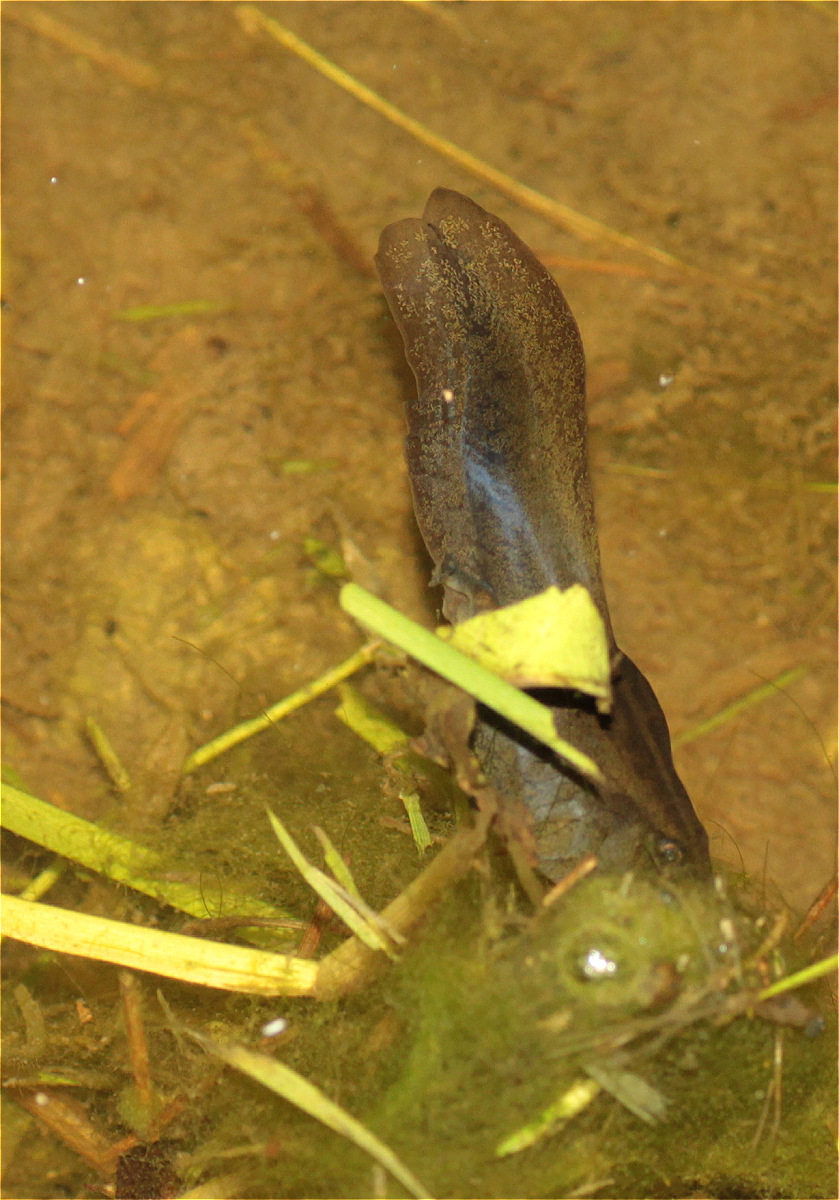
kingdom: Animalia
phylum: Chordata
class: Amphibia
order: Anura
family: Hemiphractidae
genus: Gastrotheca
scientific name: Gastrotheca cuencana
